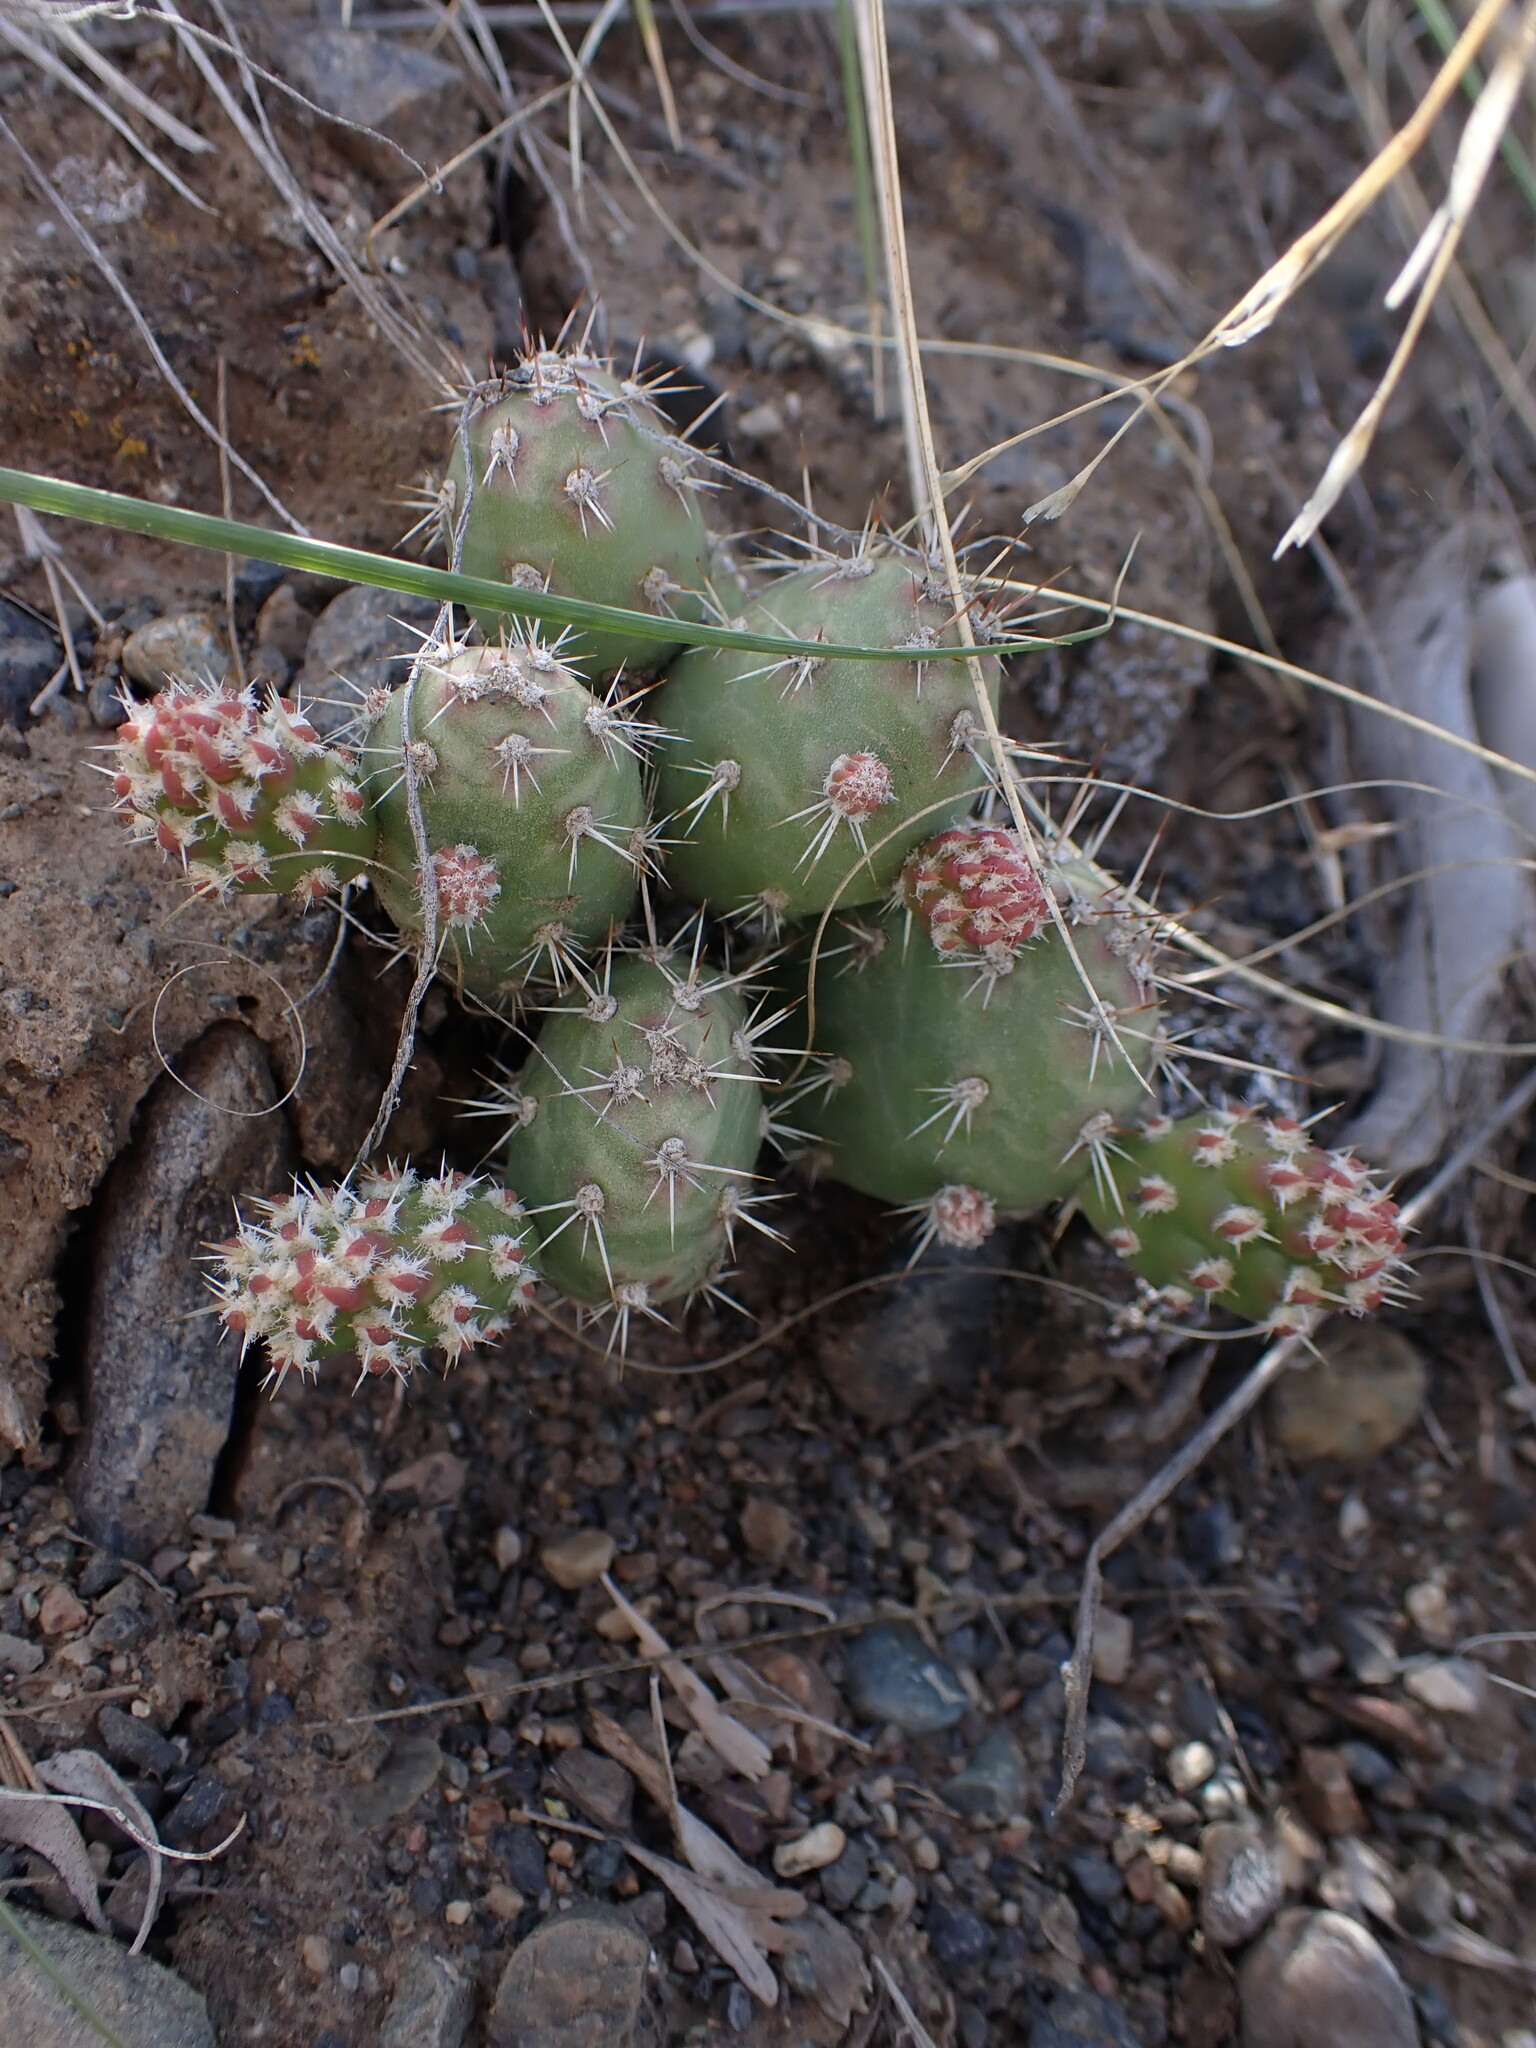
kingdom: Plantae
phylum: Tracheophyta
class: Magnoliopsida
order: Caryophyllales
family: Cactaceae
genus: Opuntia
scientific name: Opuntia fragilis
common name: Brittle cactus
